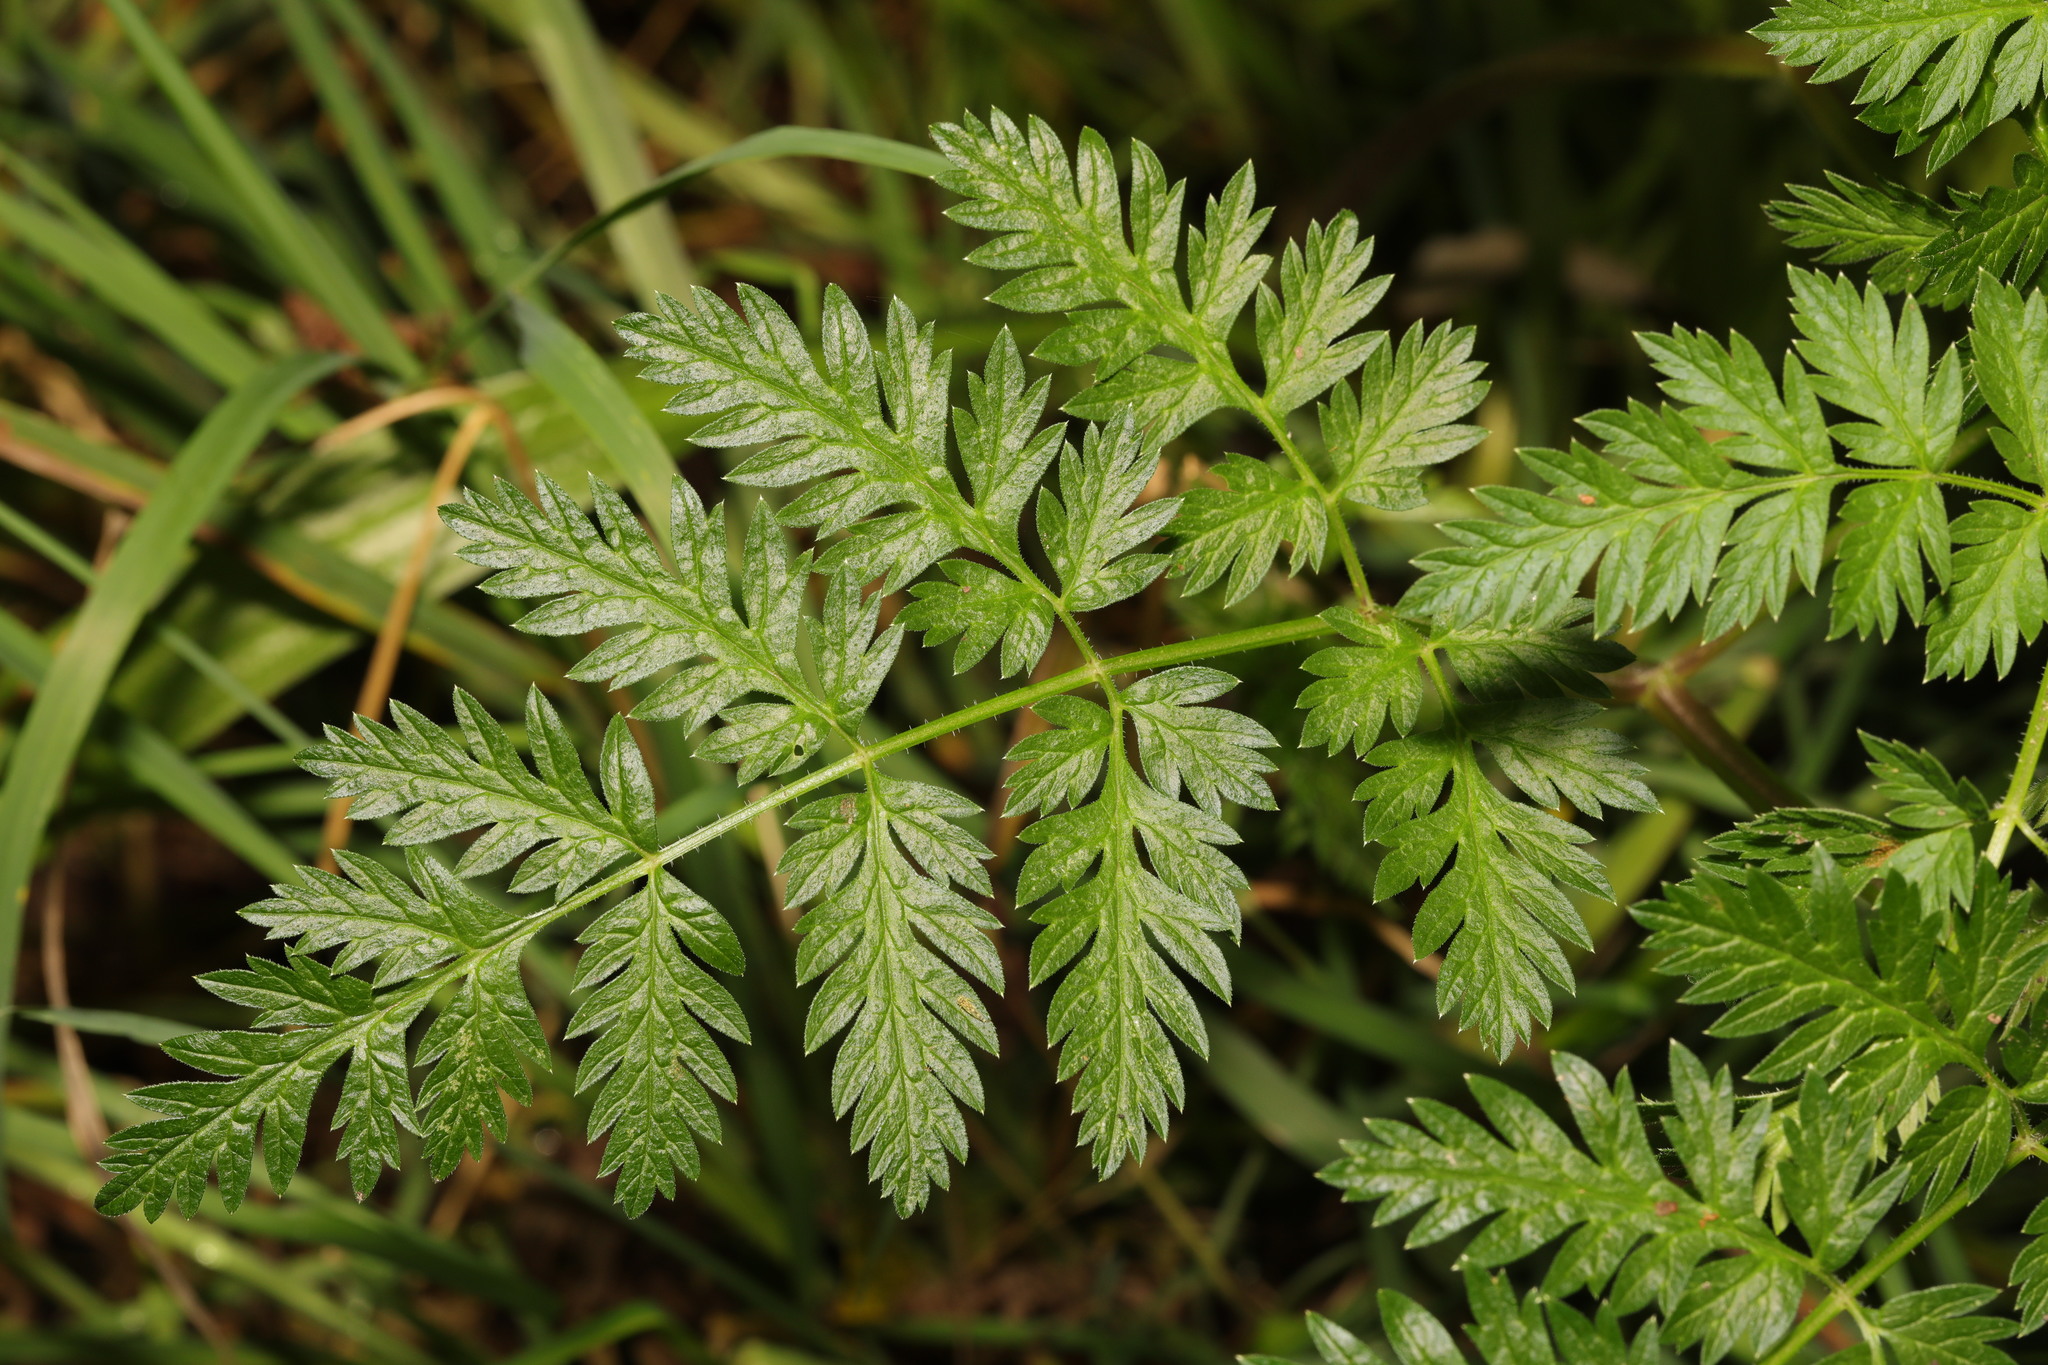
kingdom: Plantae
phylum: Tracheophyta
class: Magnoliopsida
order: Apiales
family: Apiaceae
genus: Anthriscus
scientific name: Anthriscus sylvestris
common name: Cow parsley
